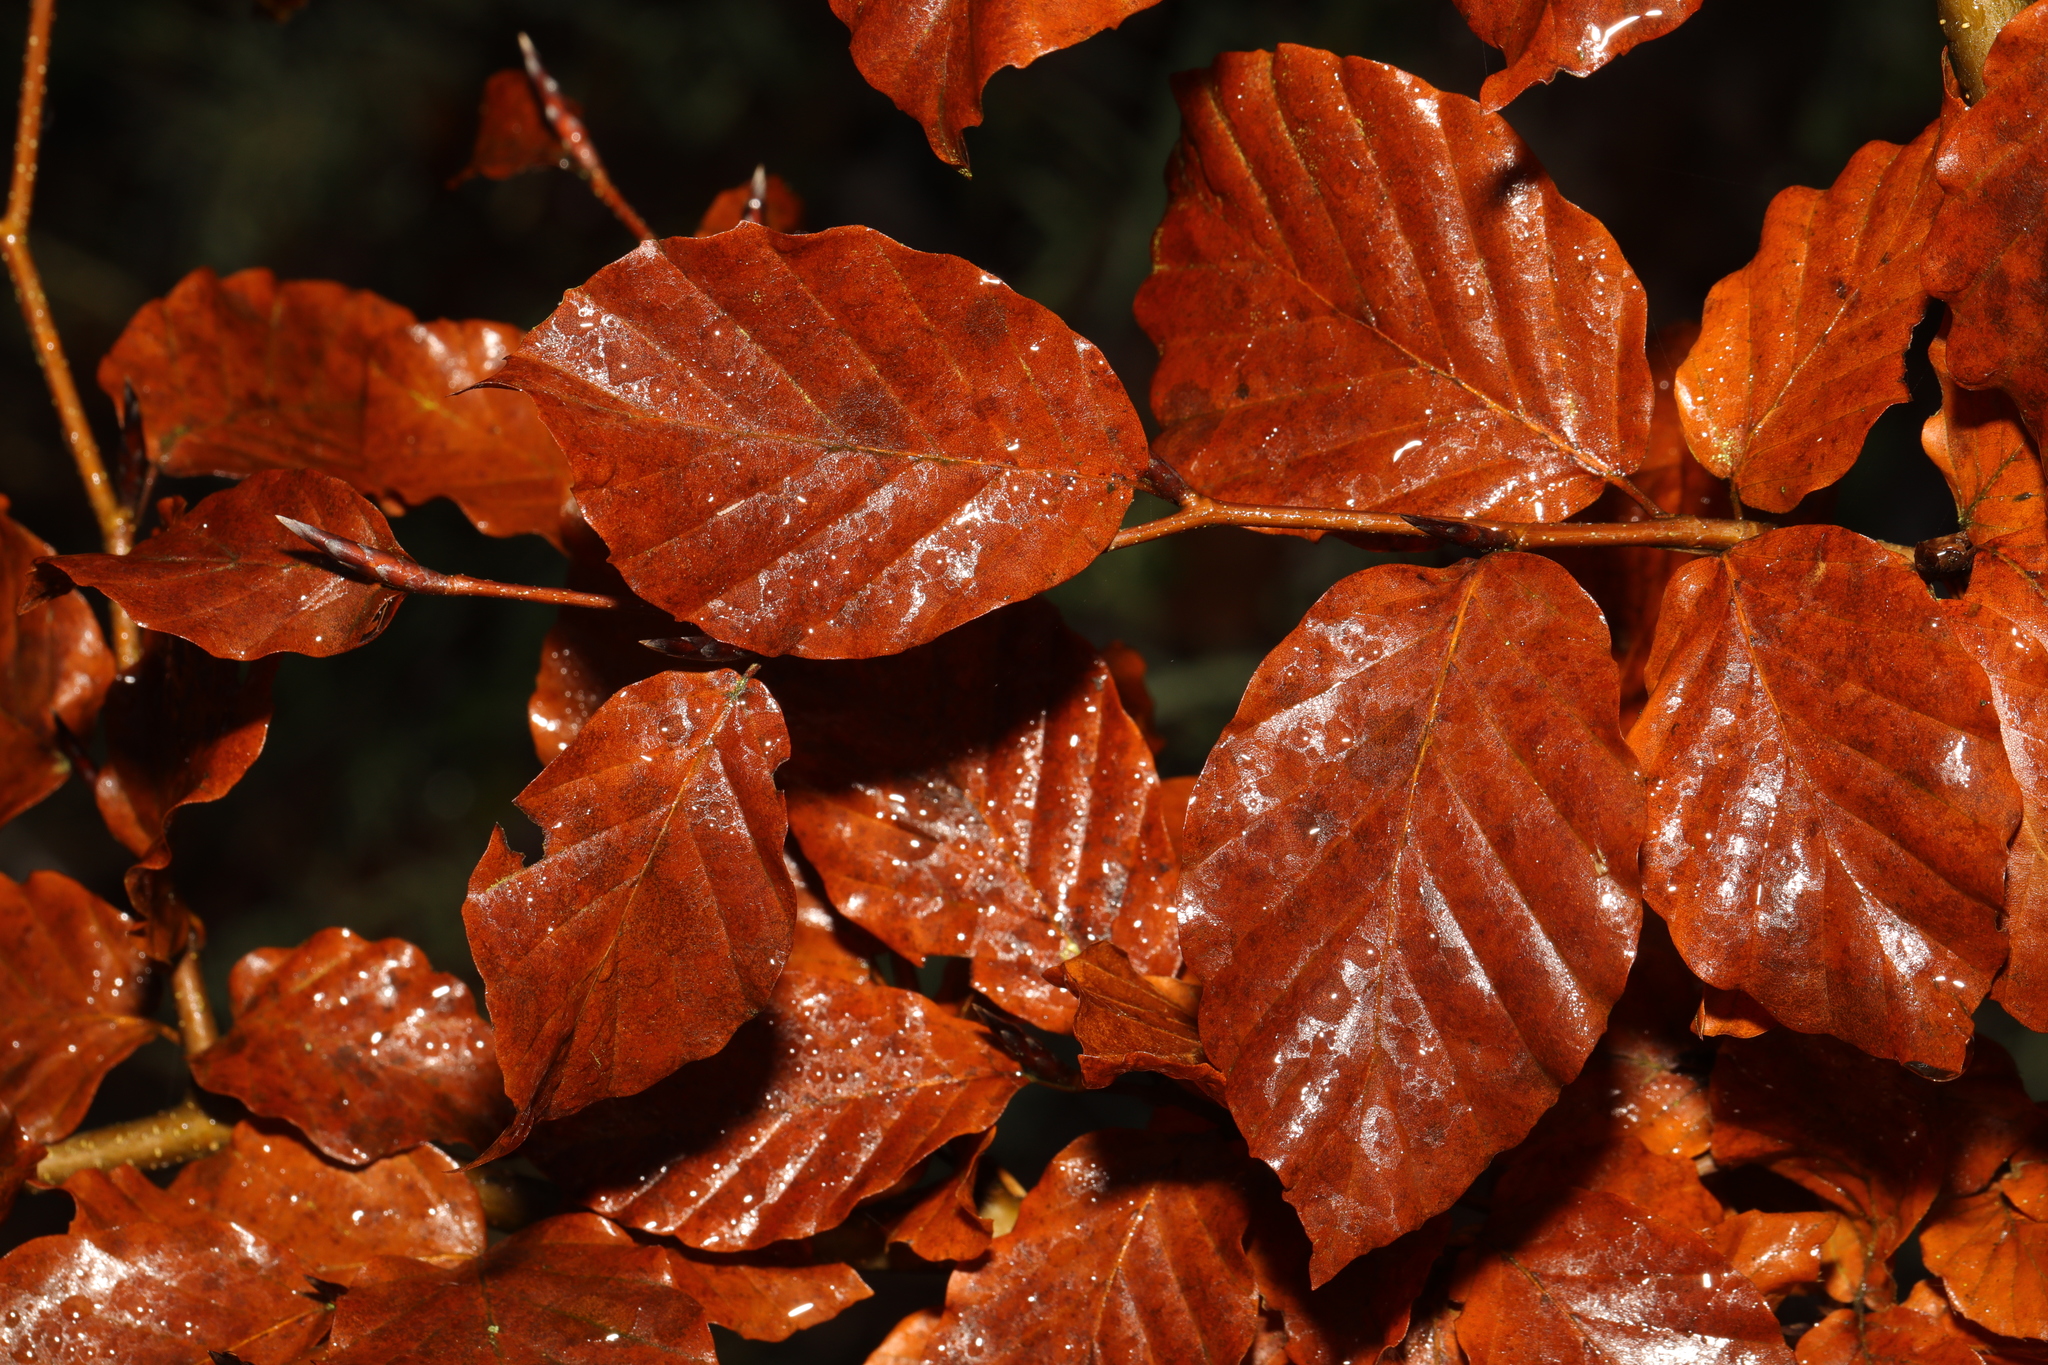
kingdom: Plantae
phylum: Tracheophyta
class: Magnoliopsida
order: Fagales
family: Fagaceae
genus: Fagus
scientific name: Fagus sylvatica
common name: Beech
